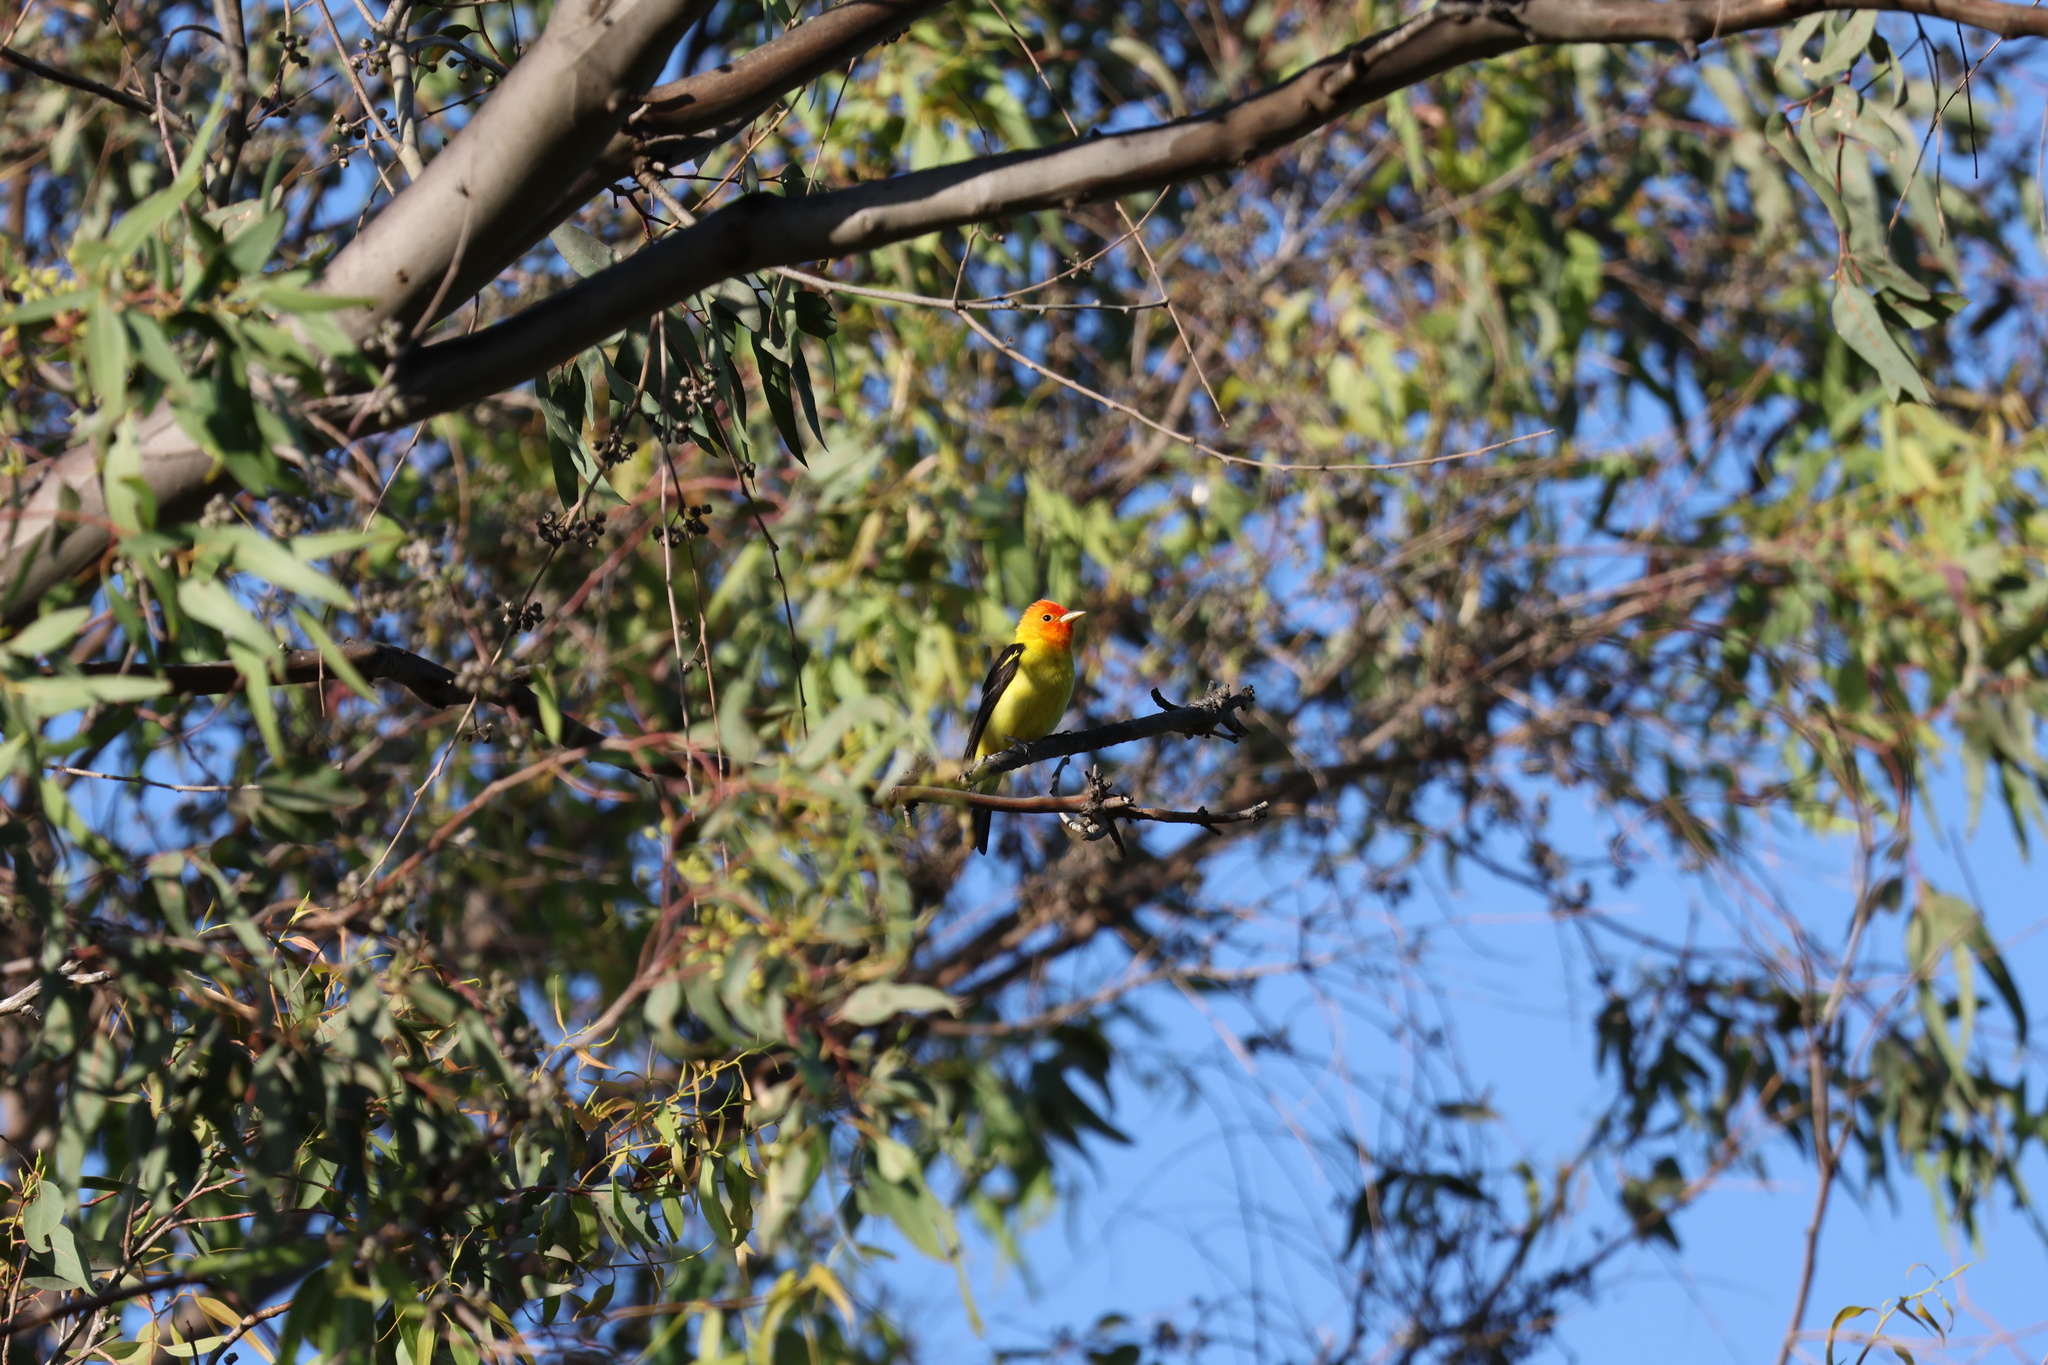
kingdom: Animalia
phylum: Chordata
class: Aves
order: Passeriformes
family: Cardinalidae
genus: Piranga
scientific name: Piranga ludoviciana
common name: Western tanager
